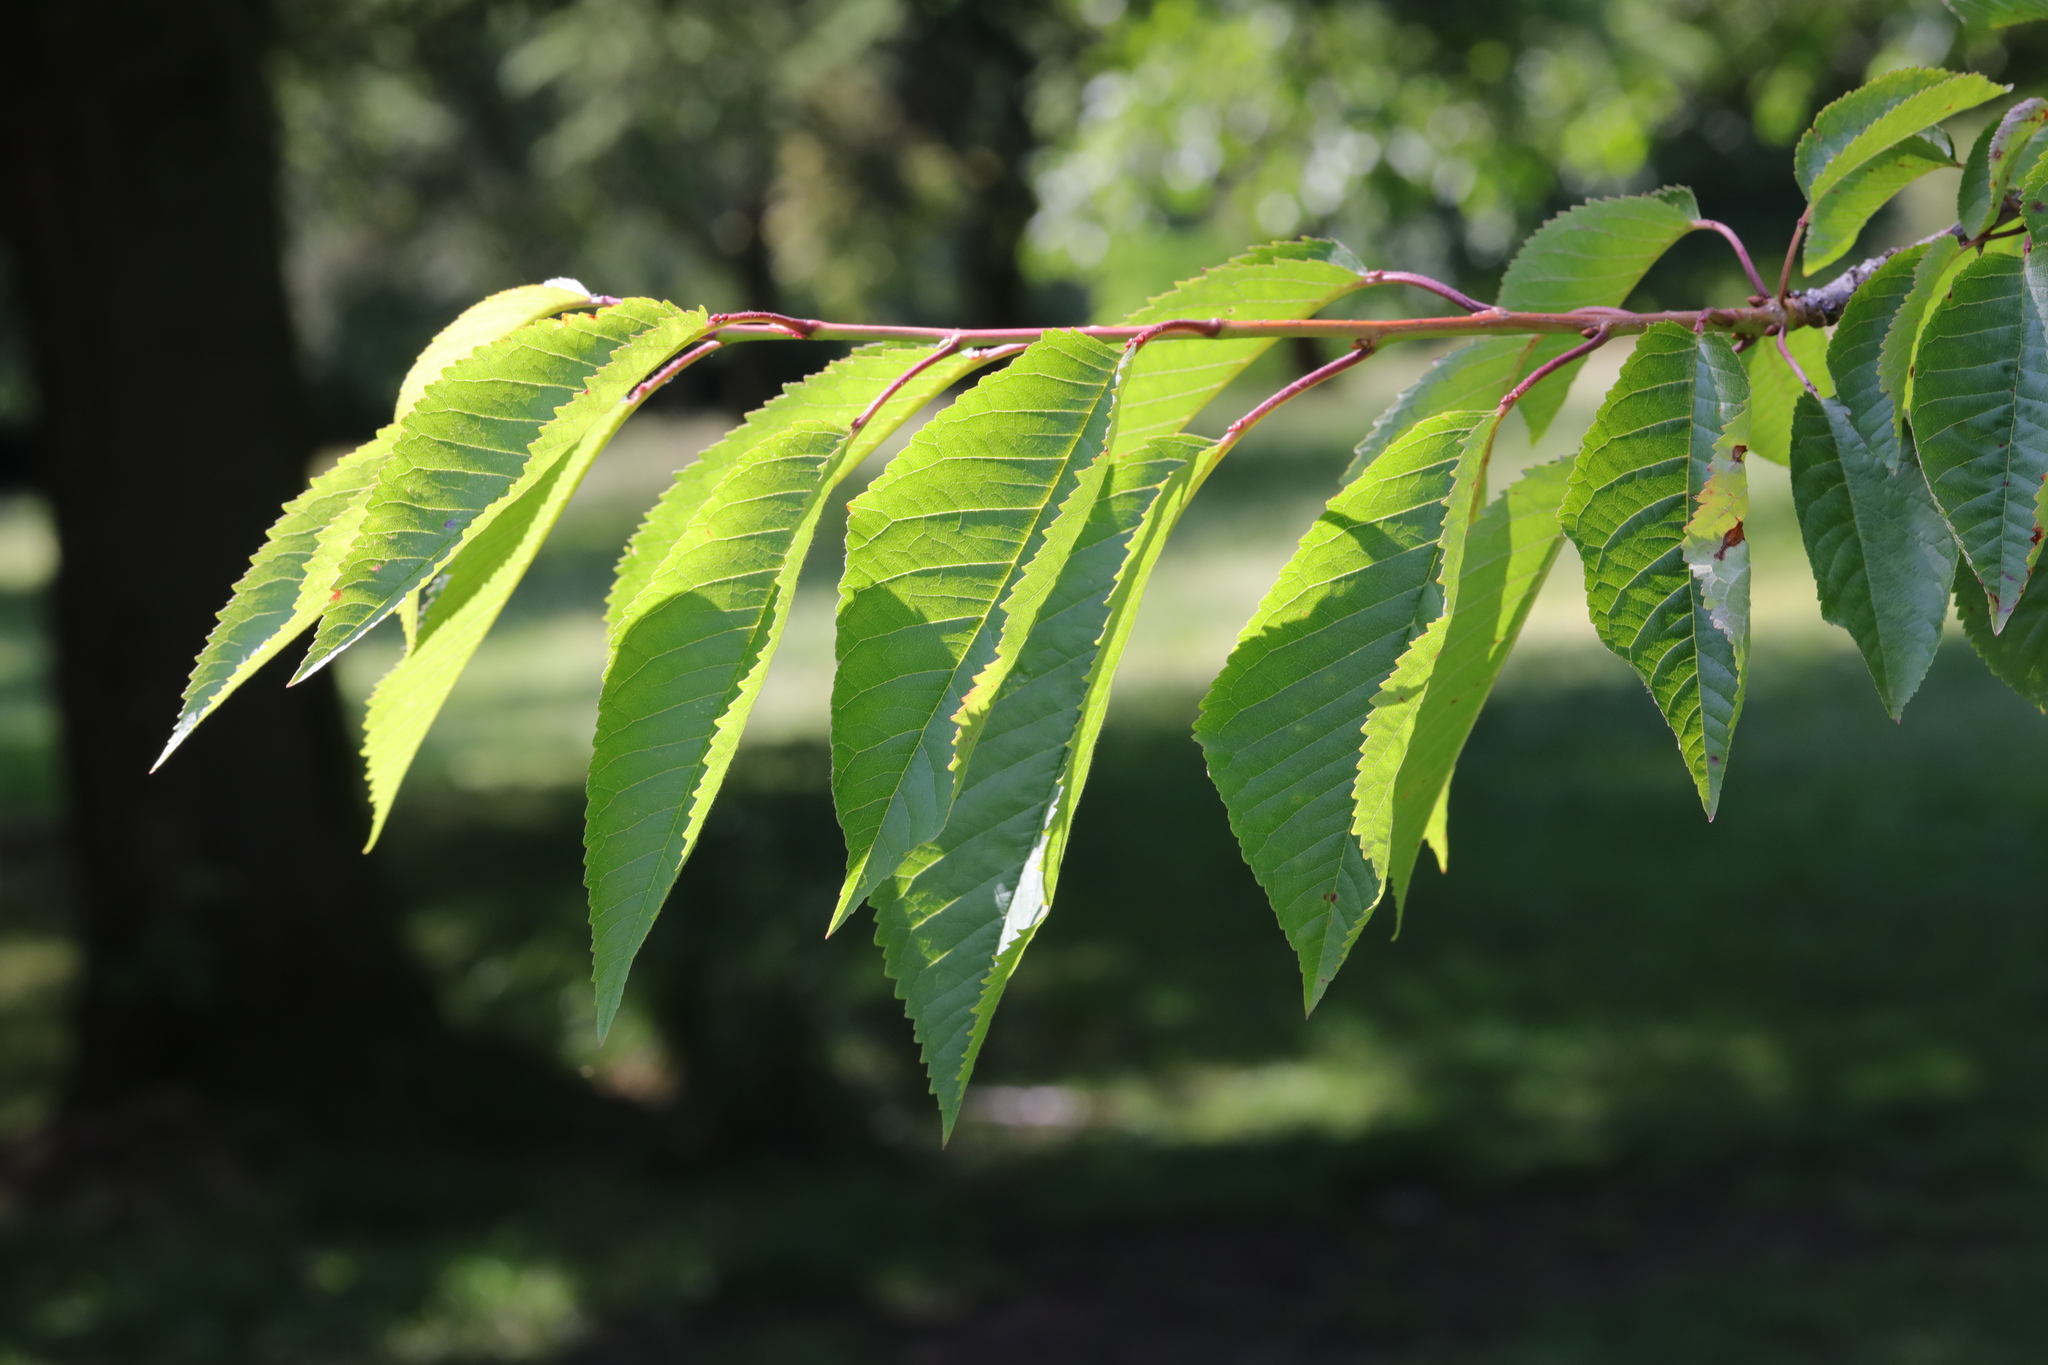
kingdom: Plantae
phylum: Tracheophyta
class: Magnoliopsida
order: Rosales
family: Rosaceae
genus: Prunus
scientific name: Prunus avium
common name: Sweet cherry
